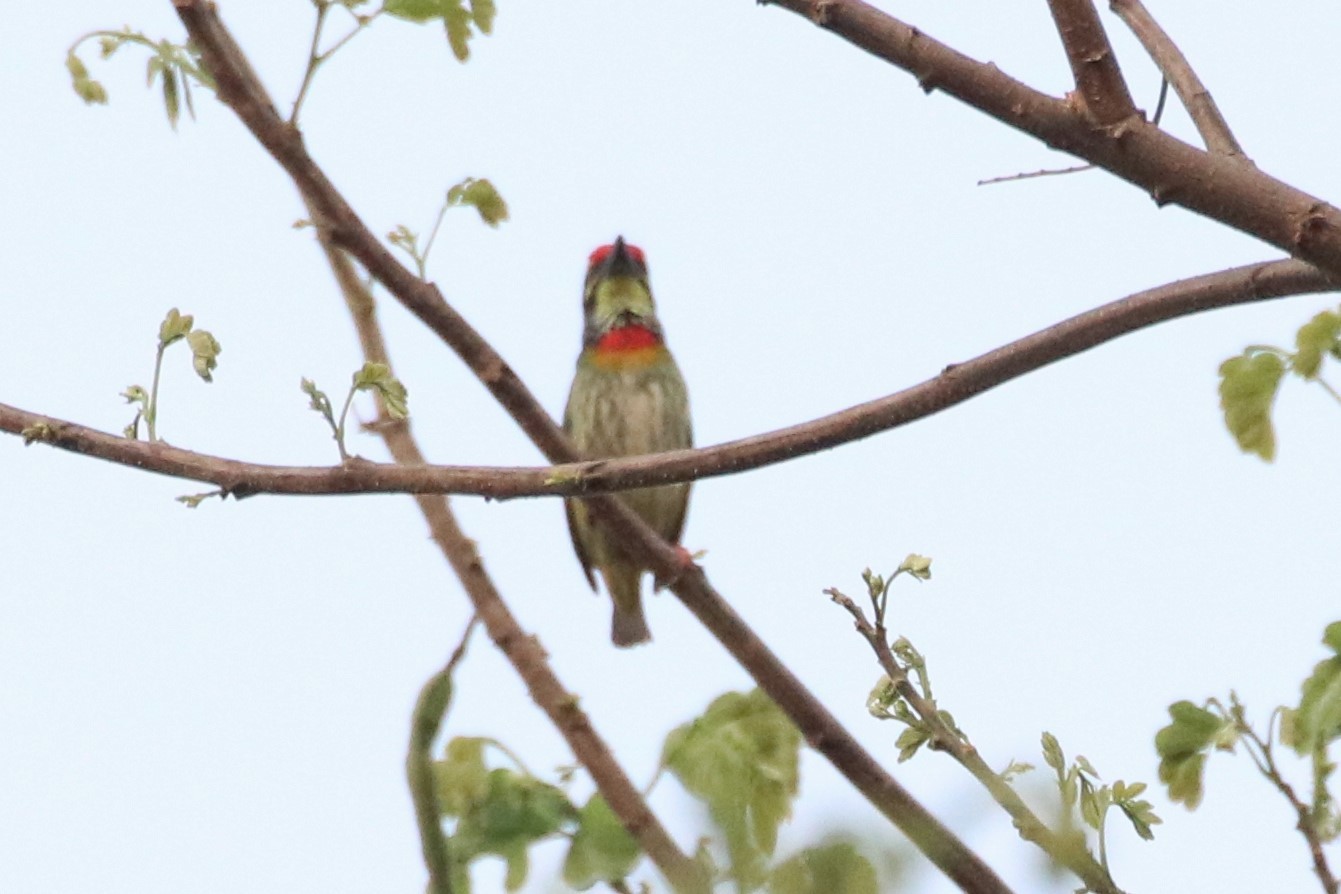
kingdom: Animalia
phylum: Chordata
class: Aves
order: Piciformes
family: Megalaimidae
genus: Psilopogon
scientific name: Psilopogon haemacephalus
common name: Coppersmith barbet
